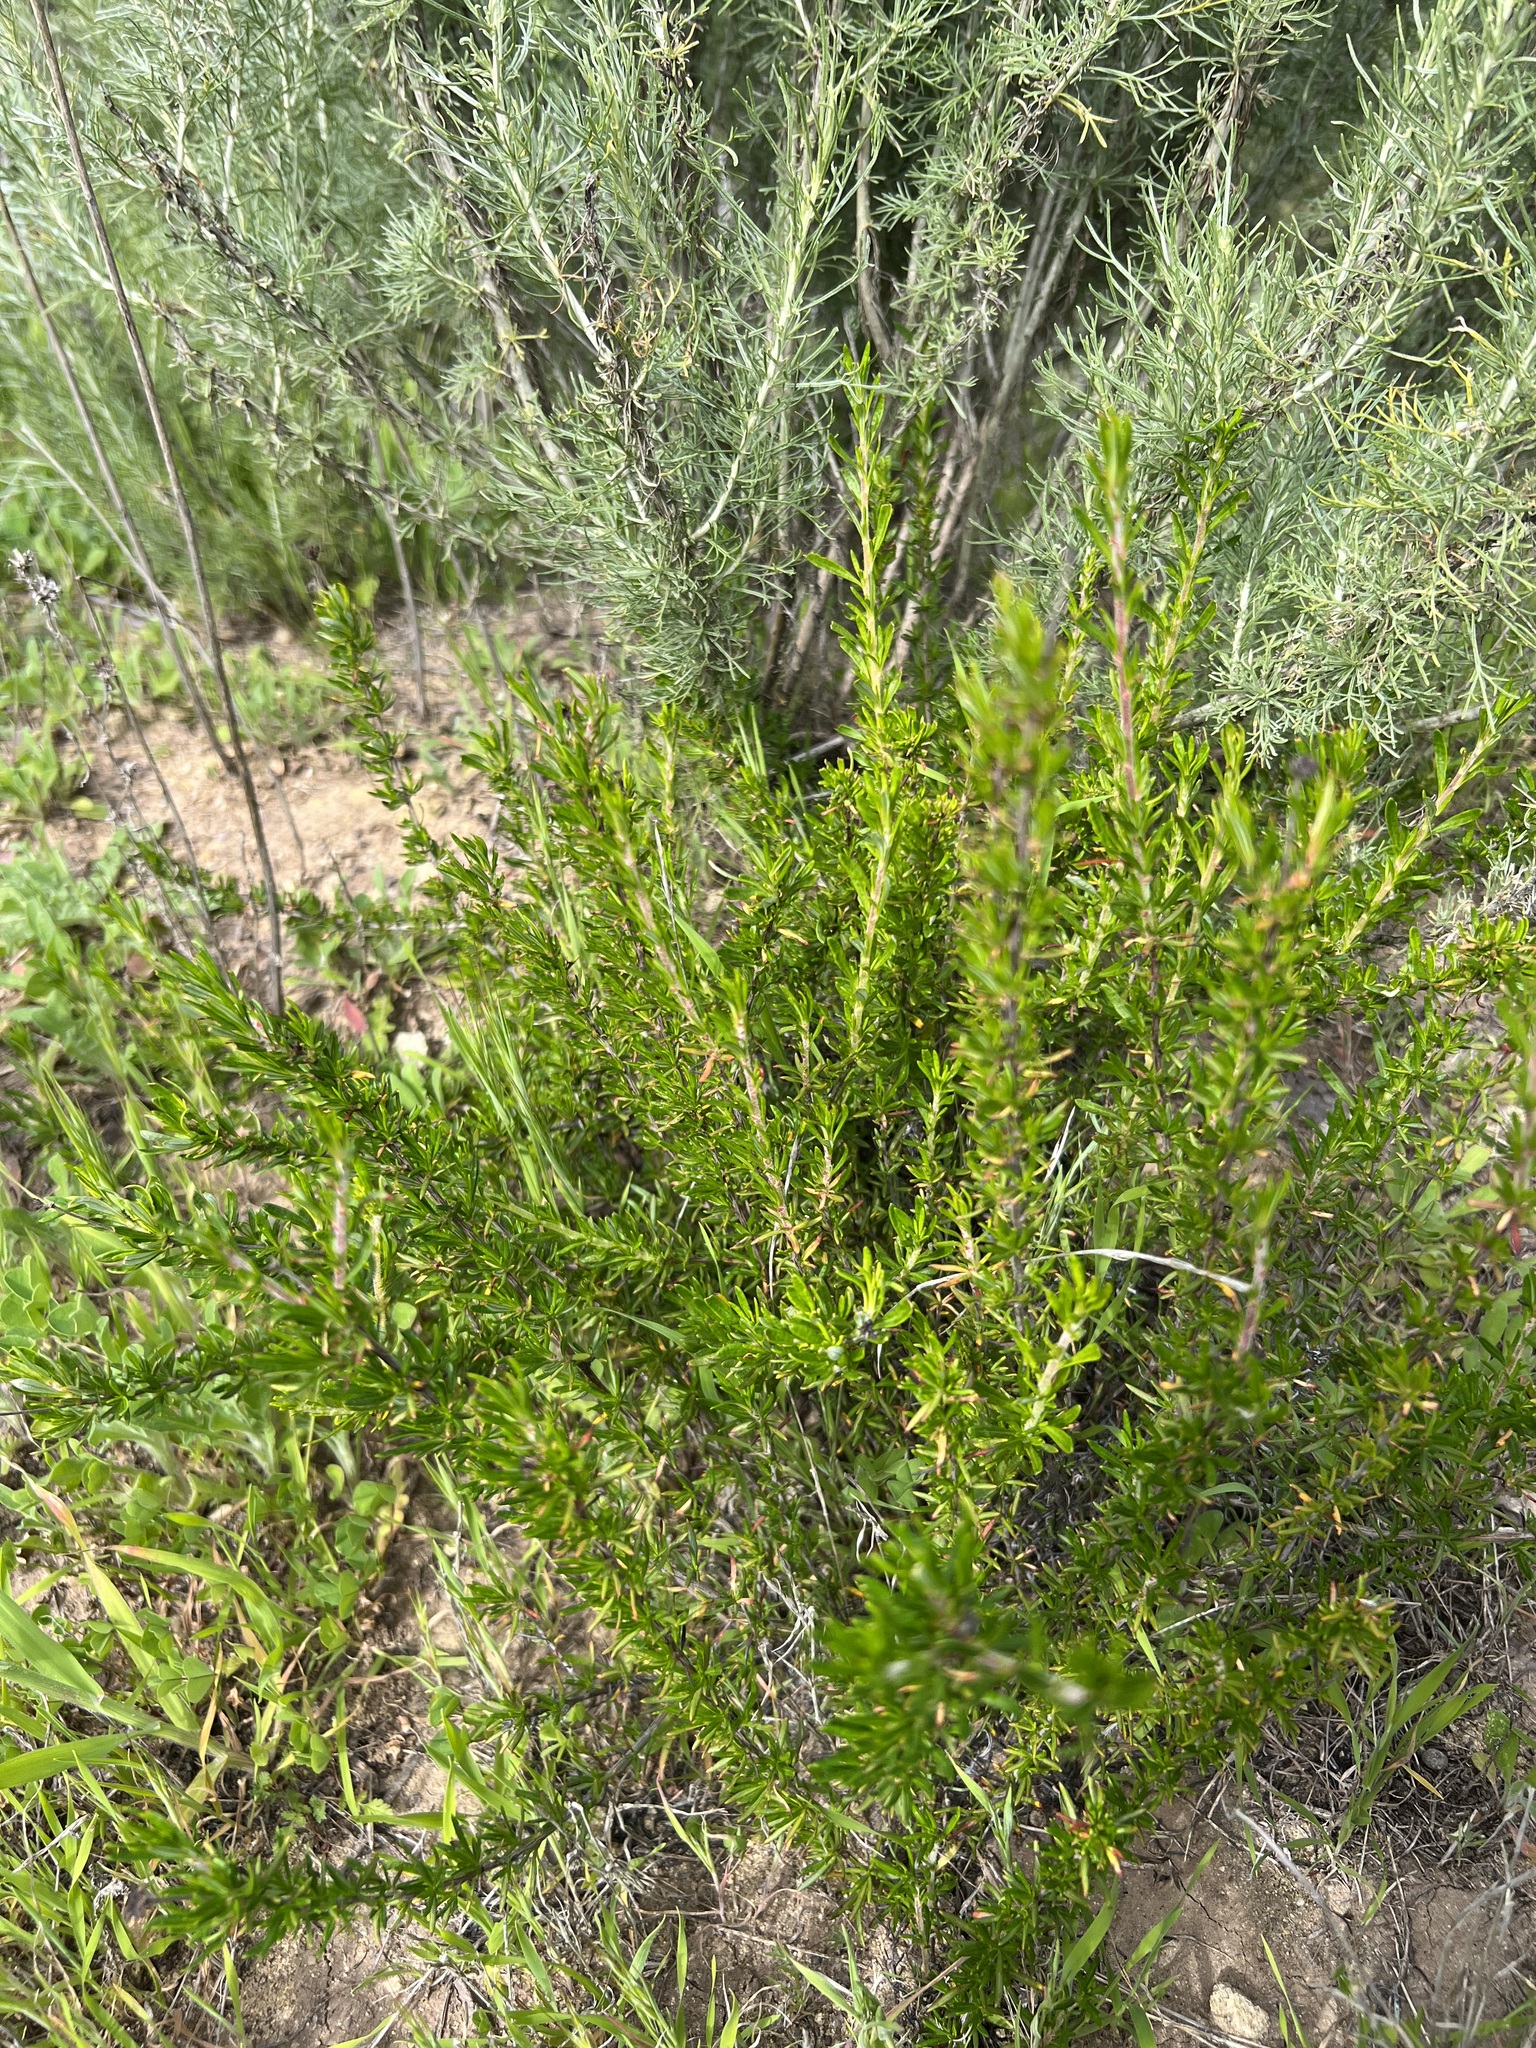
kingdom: Plantae
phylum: Tracheophyta
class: Magnoliopsida
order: Caryophyllales
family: Polygonaceae
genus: Eriogonum
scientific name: Eriogonum fasciculatum
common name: California wild buckwheat
